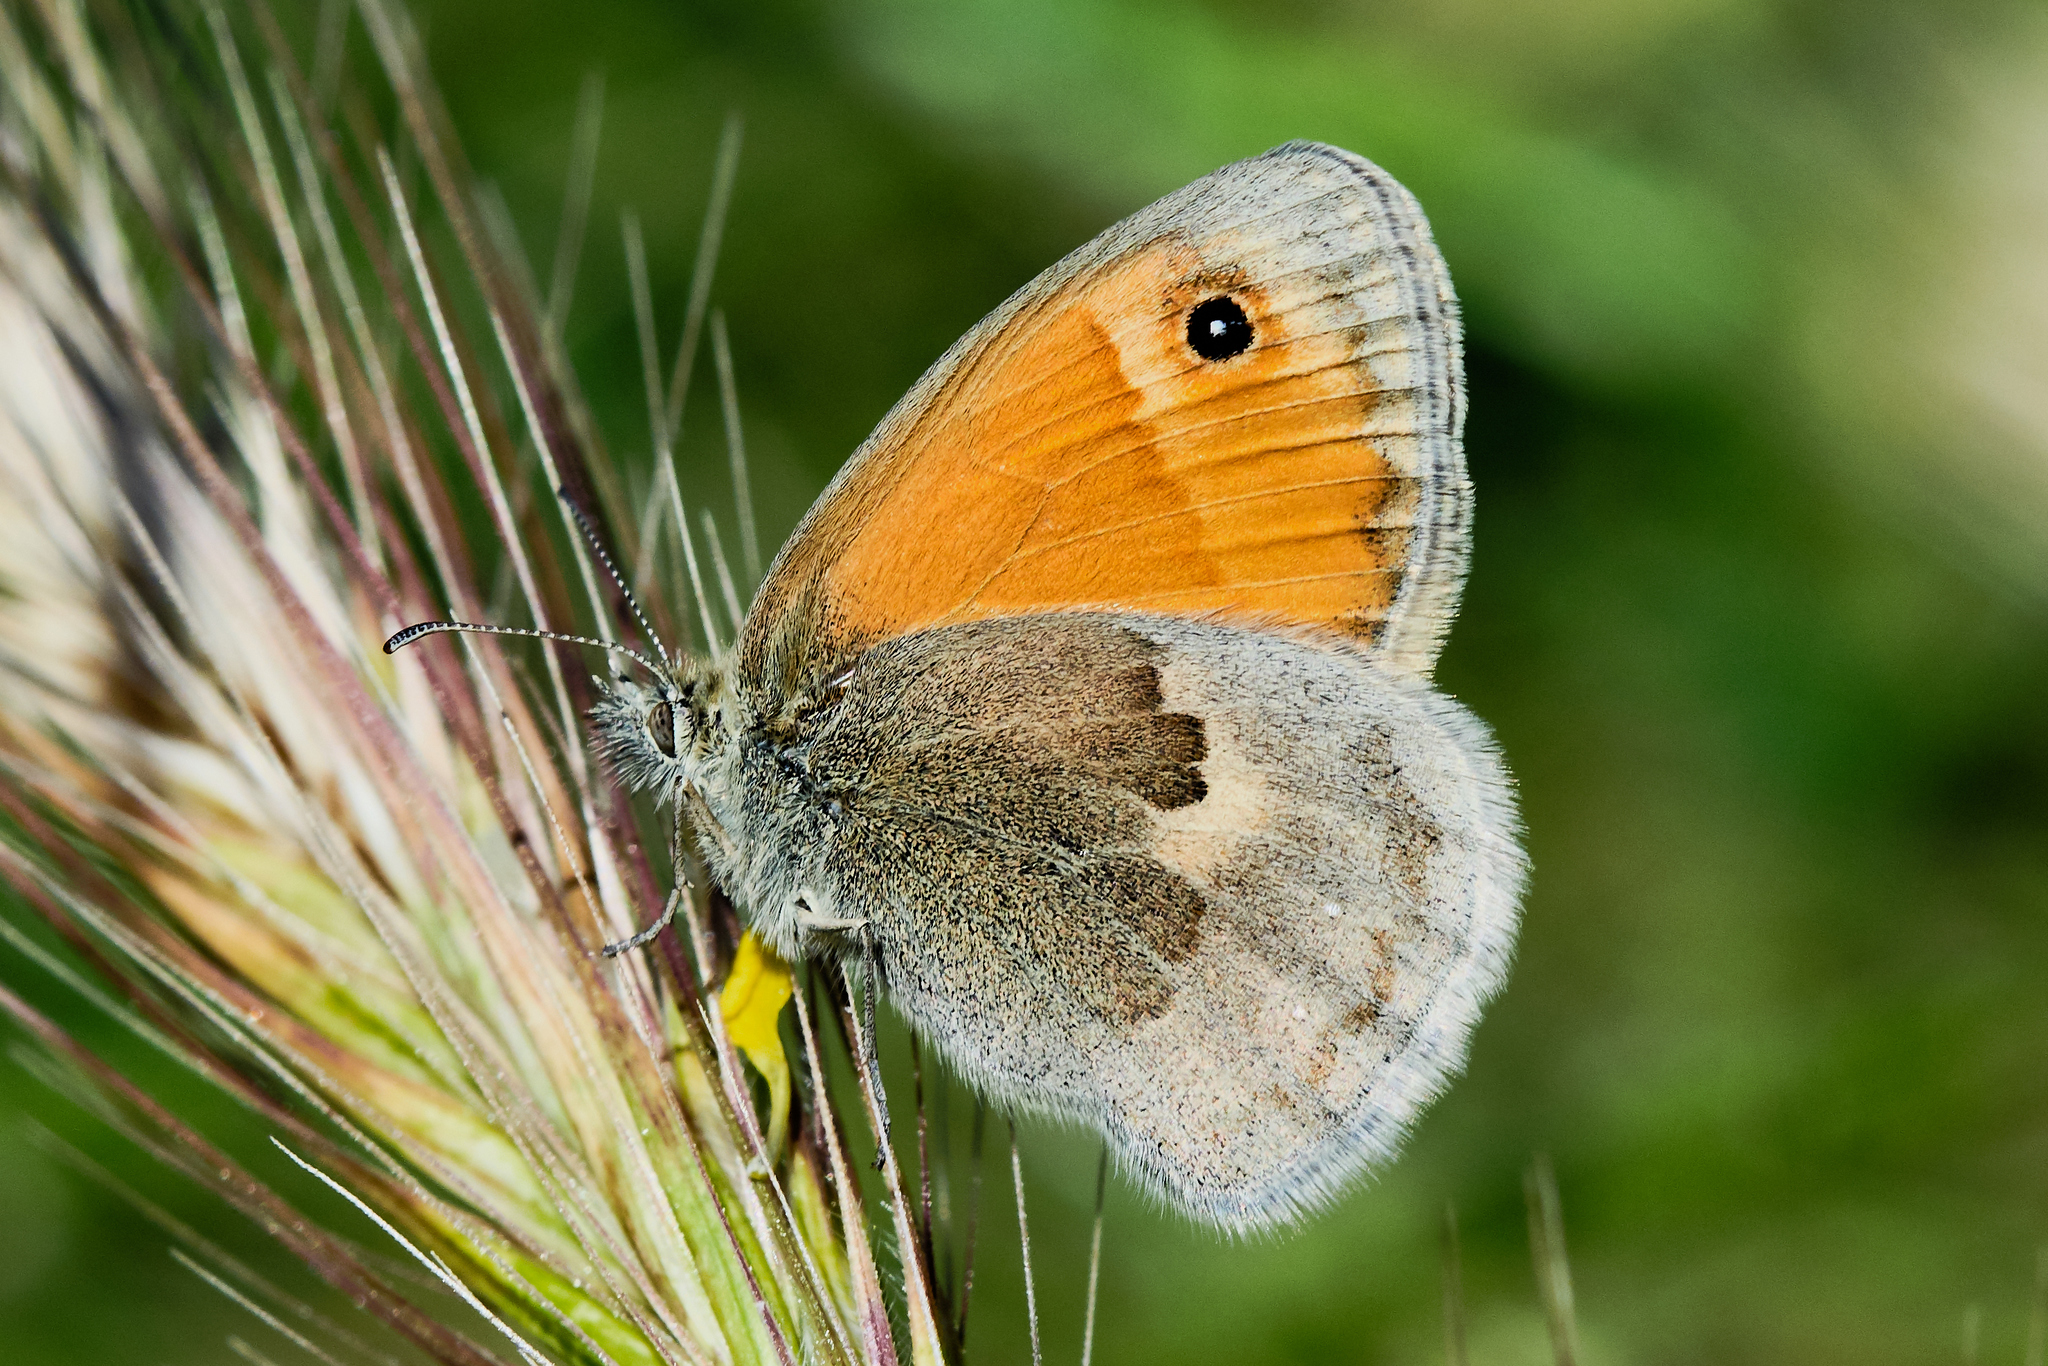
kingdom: Animalia
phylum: Arthropoda
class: Insecta
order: Lepidoptera
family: Nymphalidae
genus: Coenonympha
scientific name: Coenonympha pamphilus
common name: Small heath
